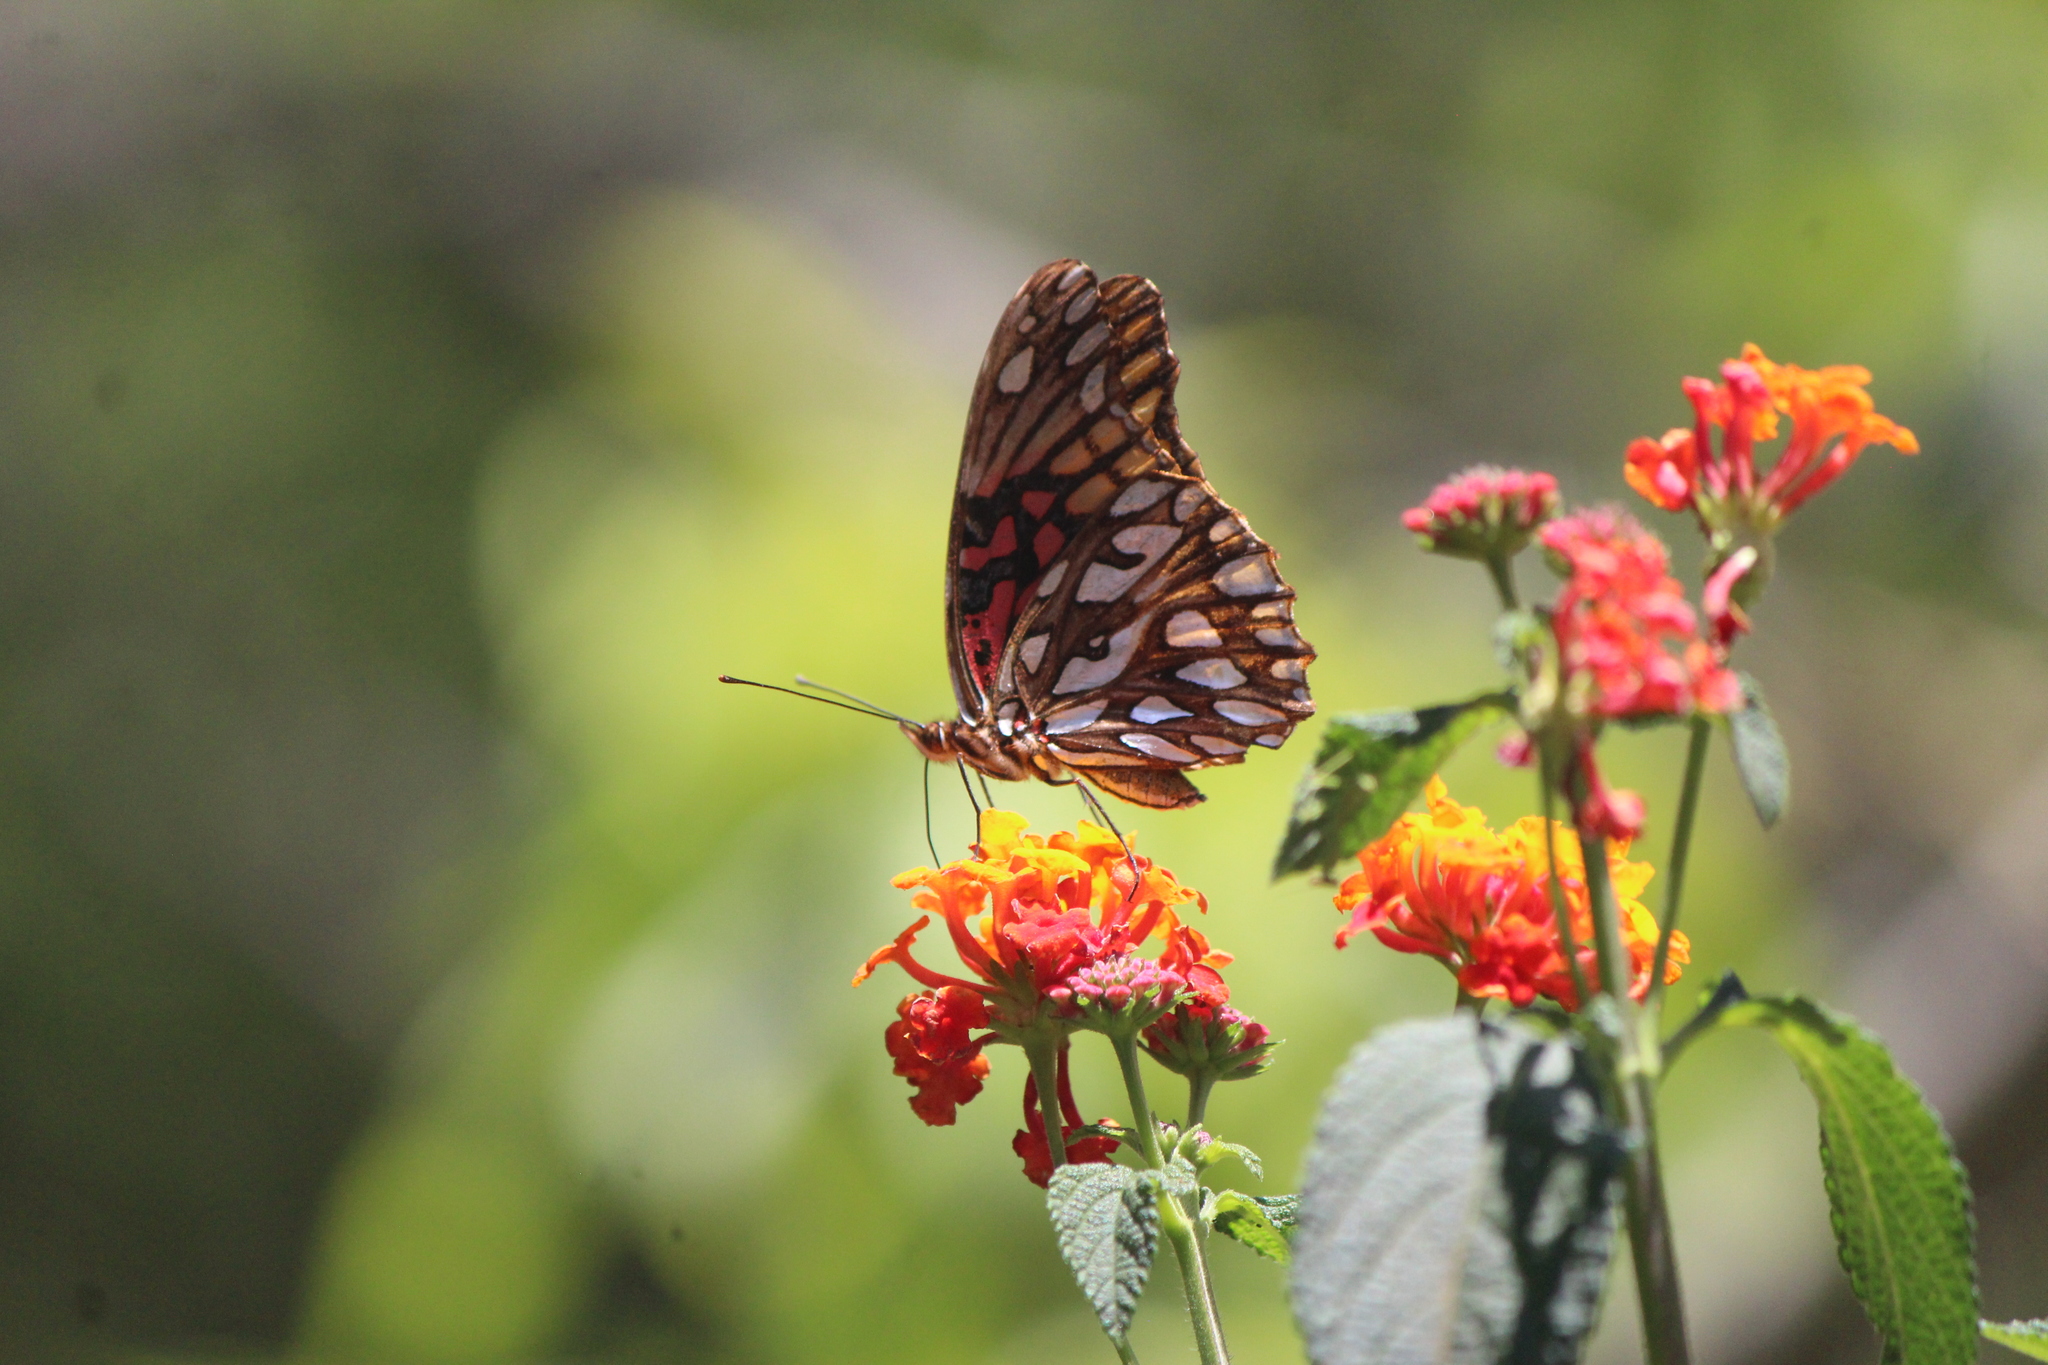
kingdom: Animalia
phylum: Arthropoda
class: Insecta
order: Lepidoptera
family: Nymphalidae
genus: Dione
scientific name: Dione moneta
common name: Mexican silverspot
